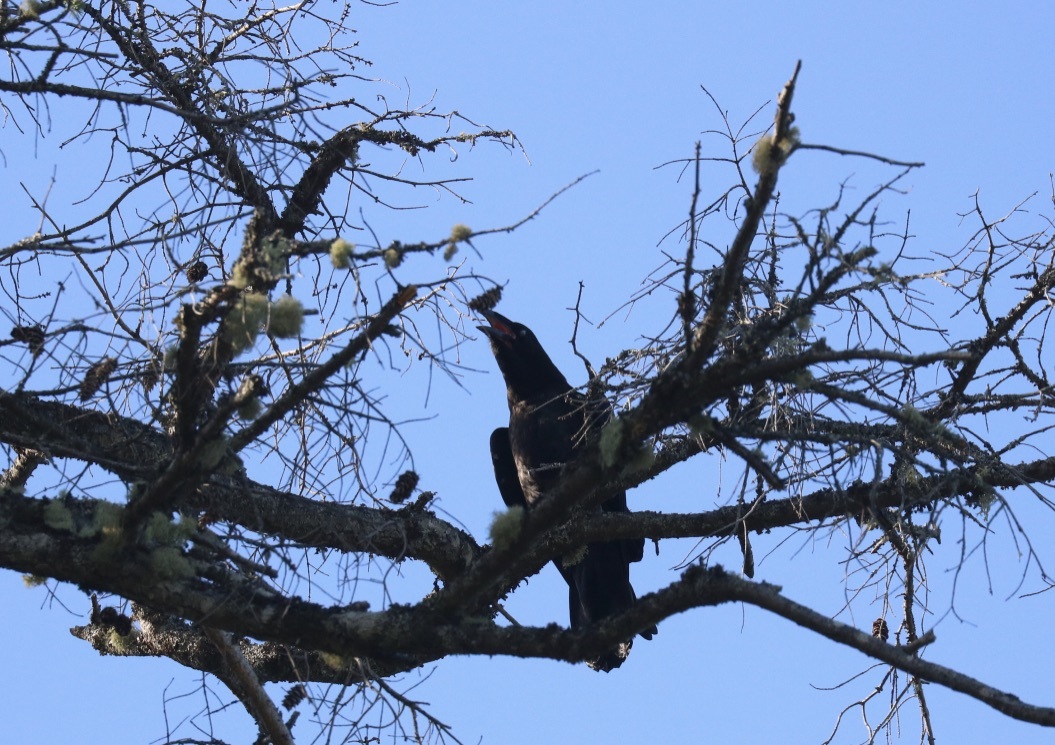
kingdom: Animalia
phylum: Chordata
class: Aves
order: Passeriformes
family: Corvidae
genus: Corvus
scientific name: Corvus corax
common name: Common raven
